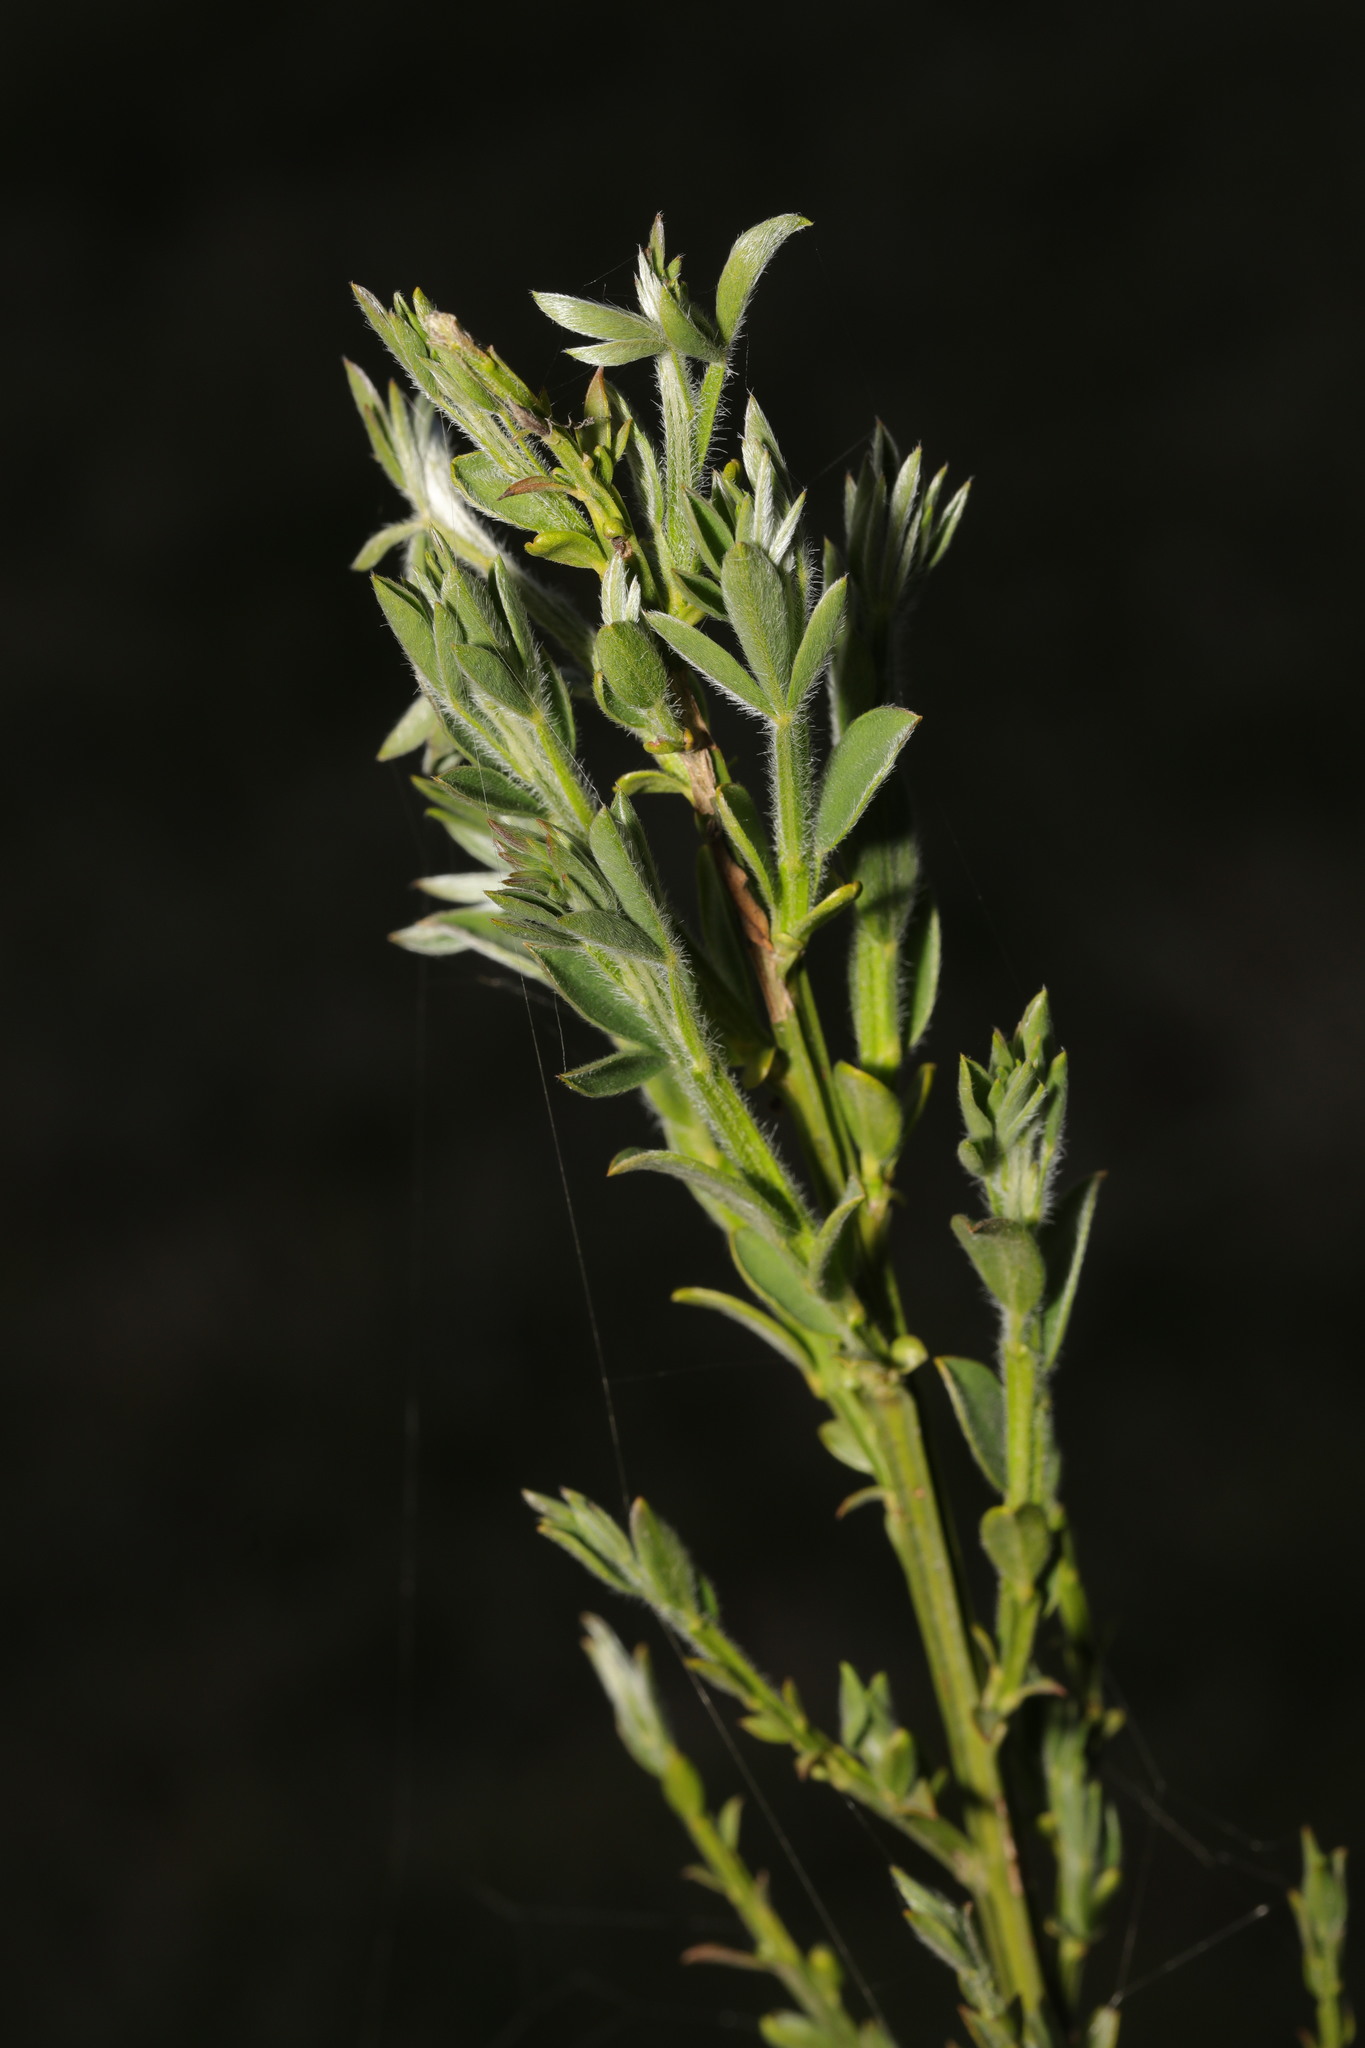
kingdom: Plantae
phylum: Tracheophyta
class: Magnoliopsida
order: Fabales
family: Fabaceae
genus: Cytisus
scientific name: Cytisus scoparius
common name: Scotch broom
